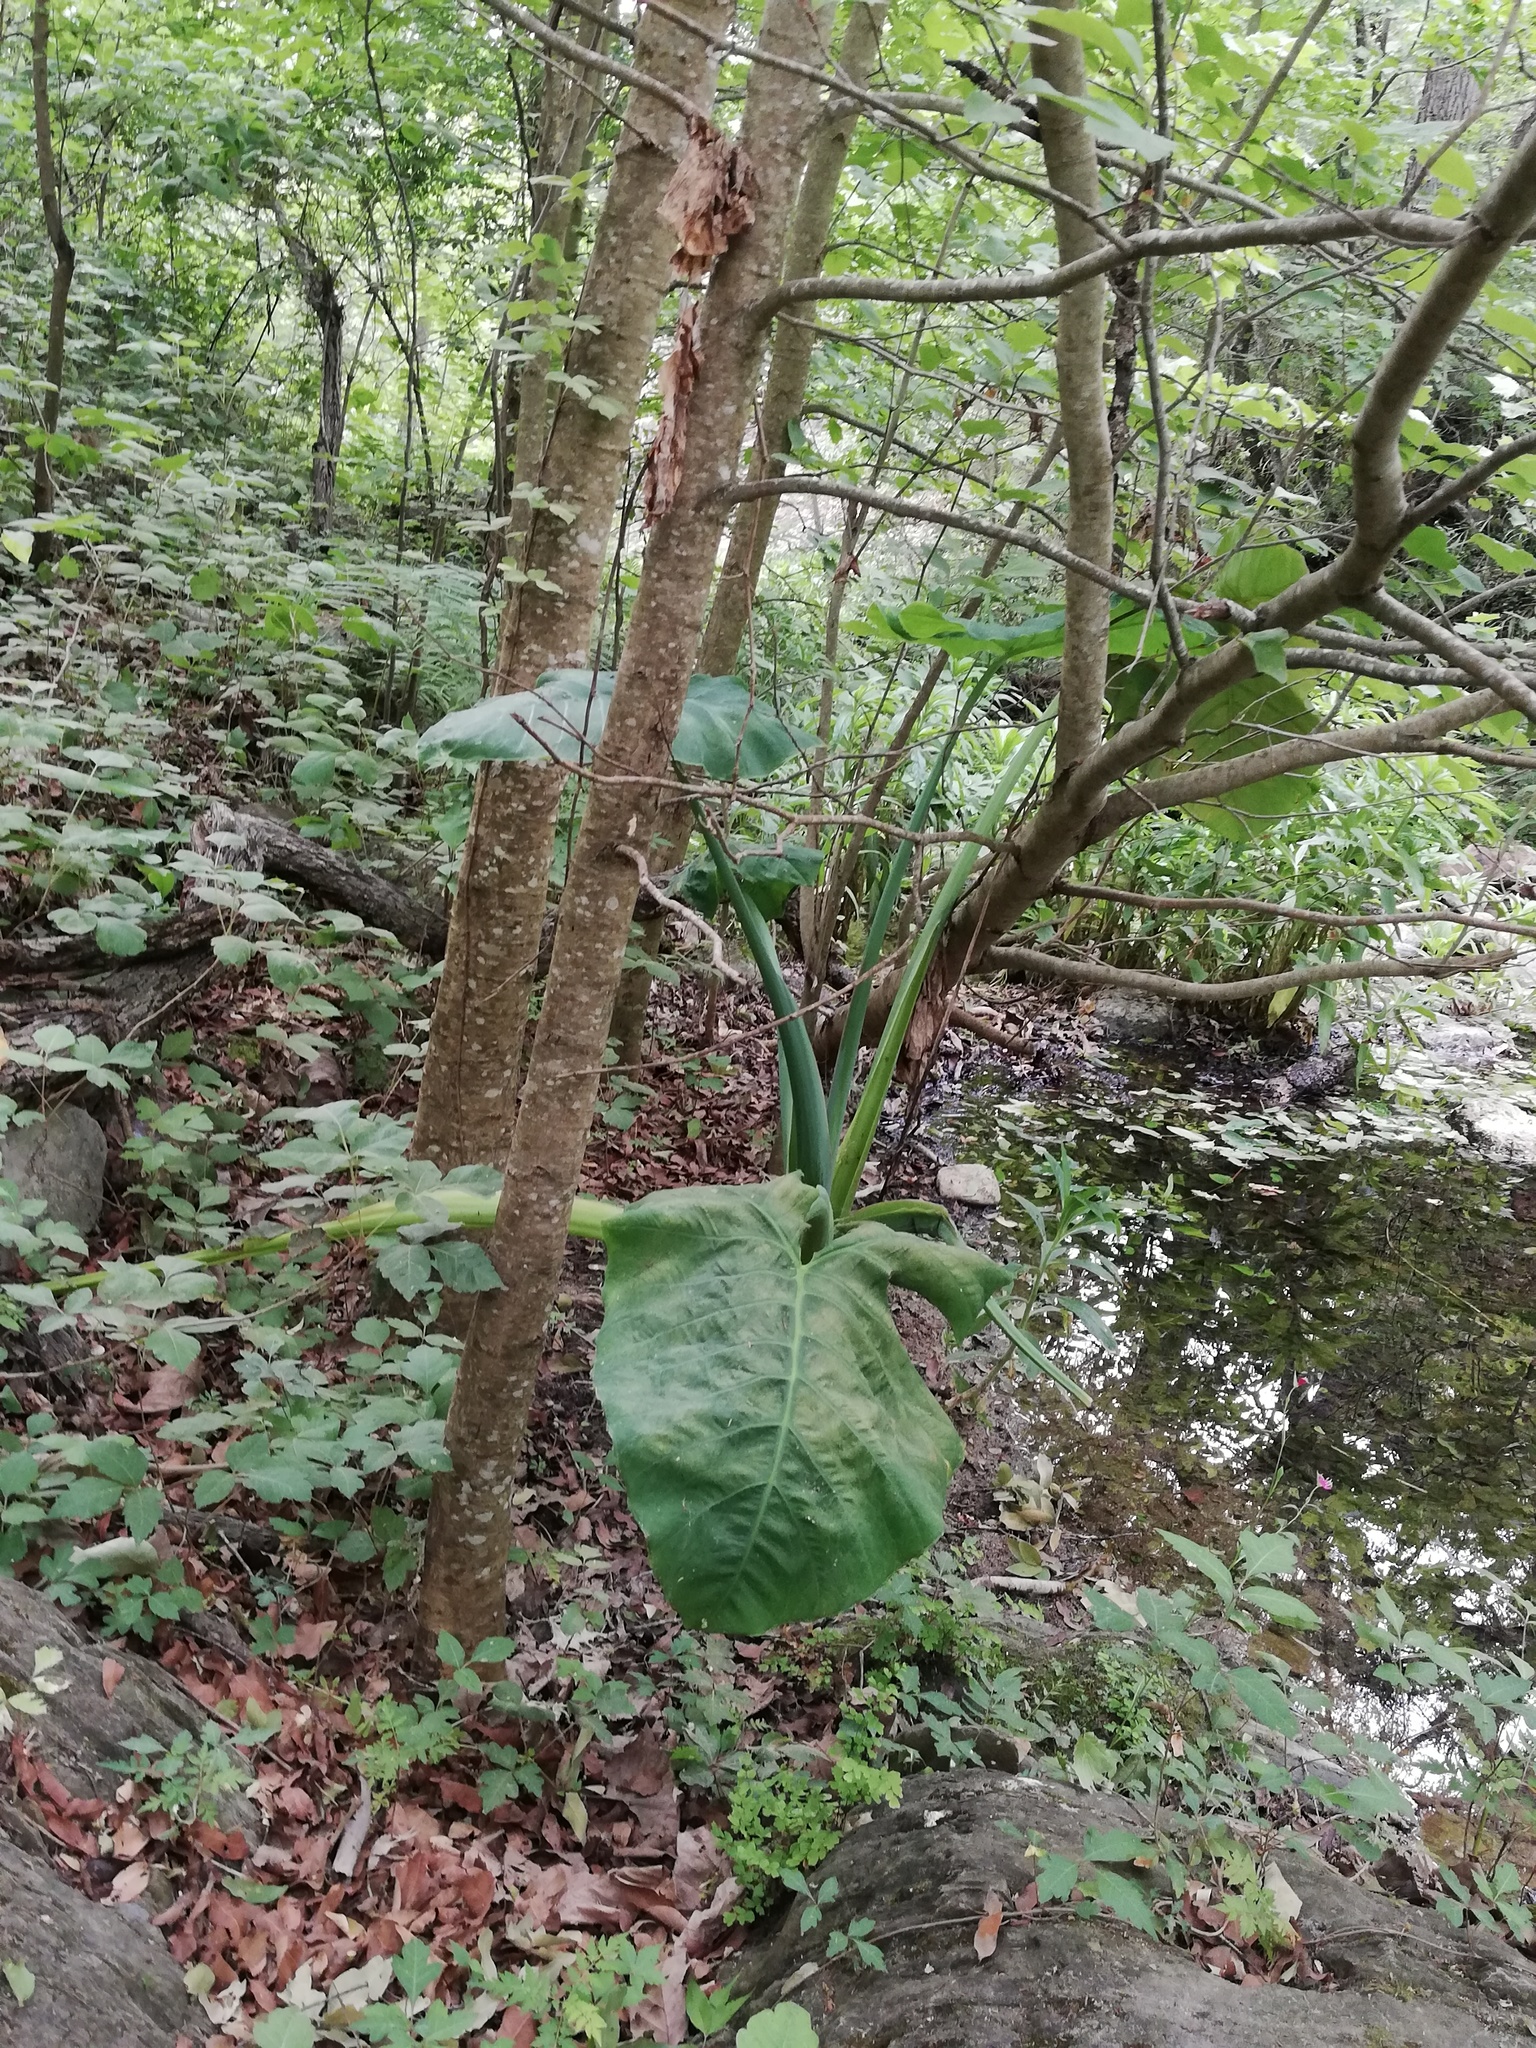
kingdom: Plantae
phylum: Tracheophyta
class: Liliopsida
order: Alismatales
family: Araceae
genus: Xanthosoma
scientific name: Xanthosoma robustum
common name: Capote
